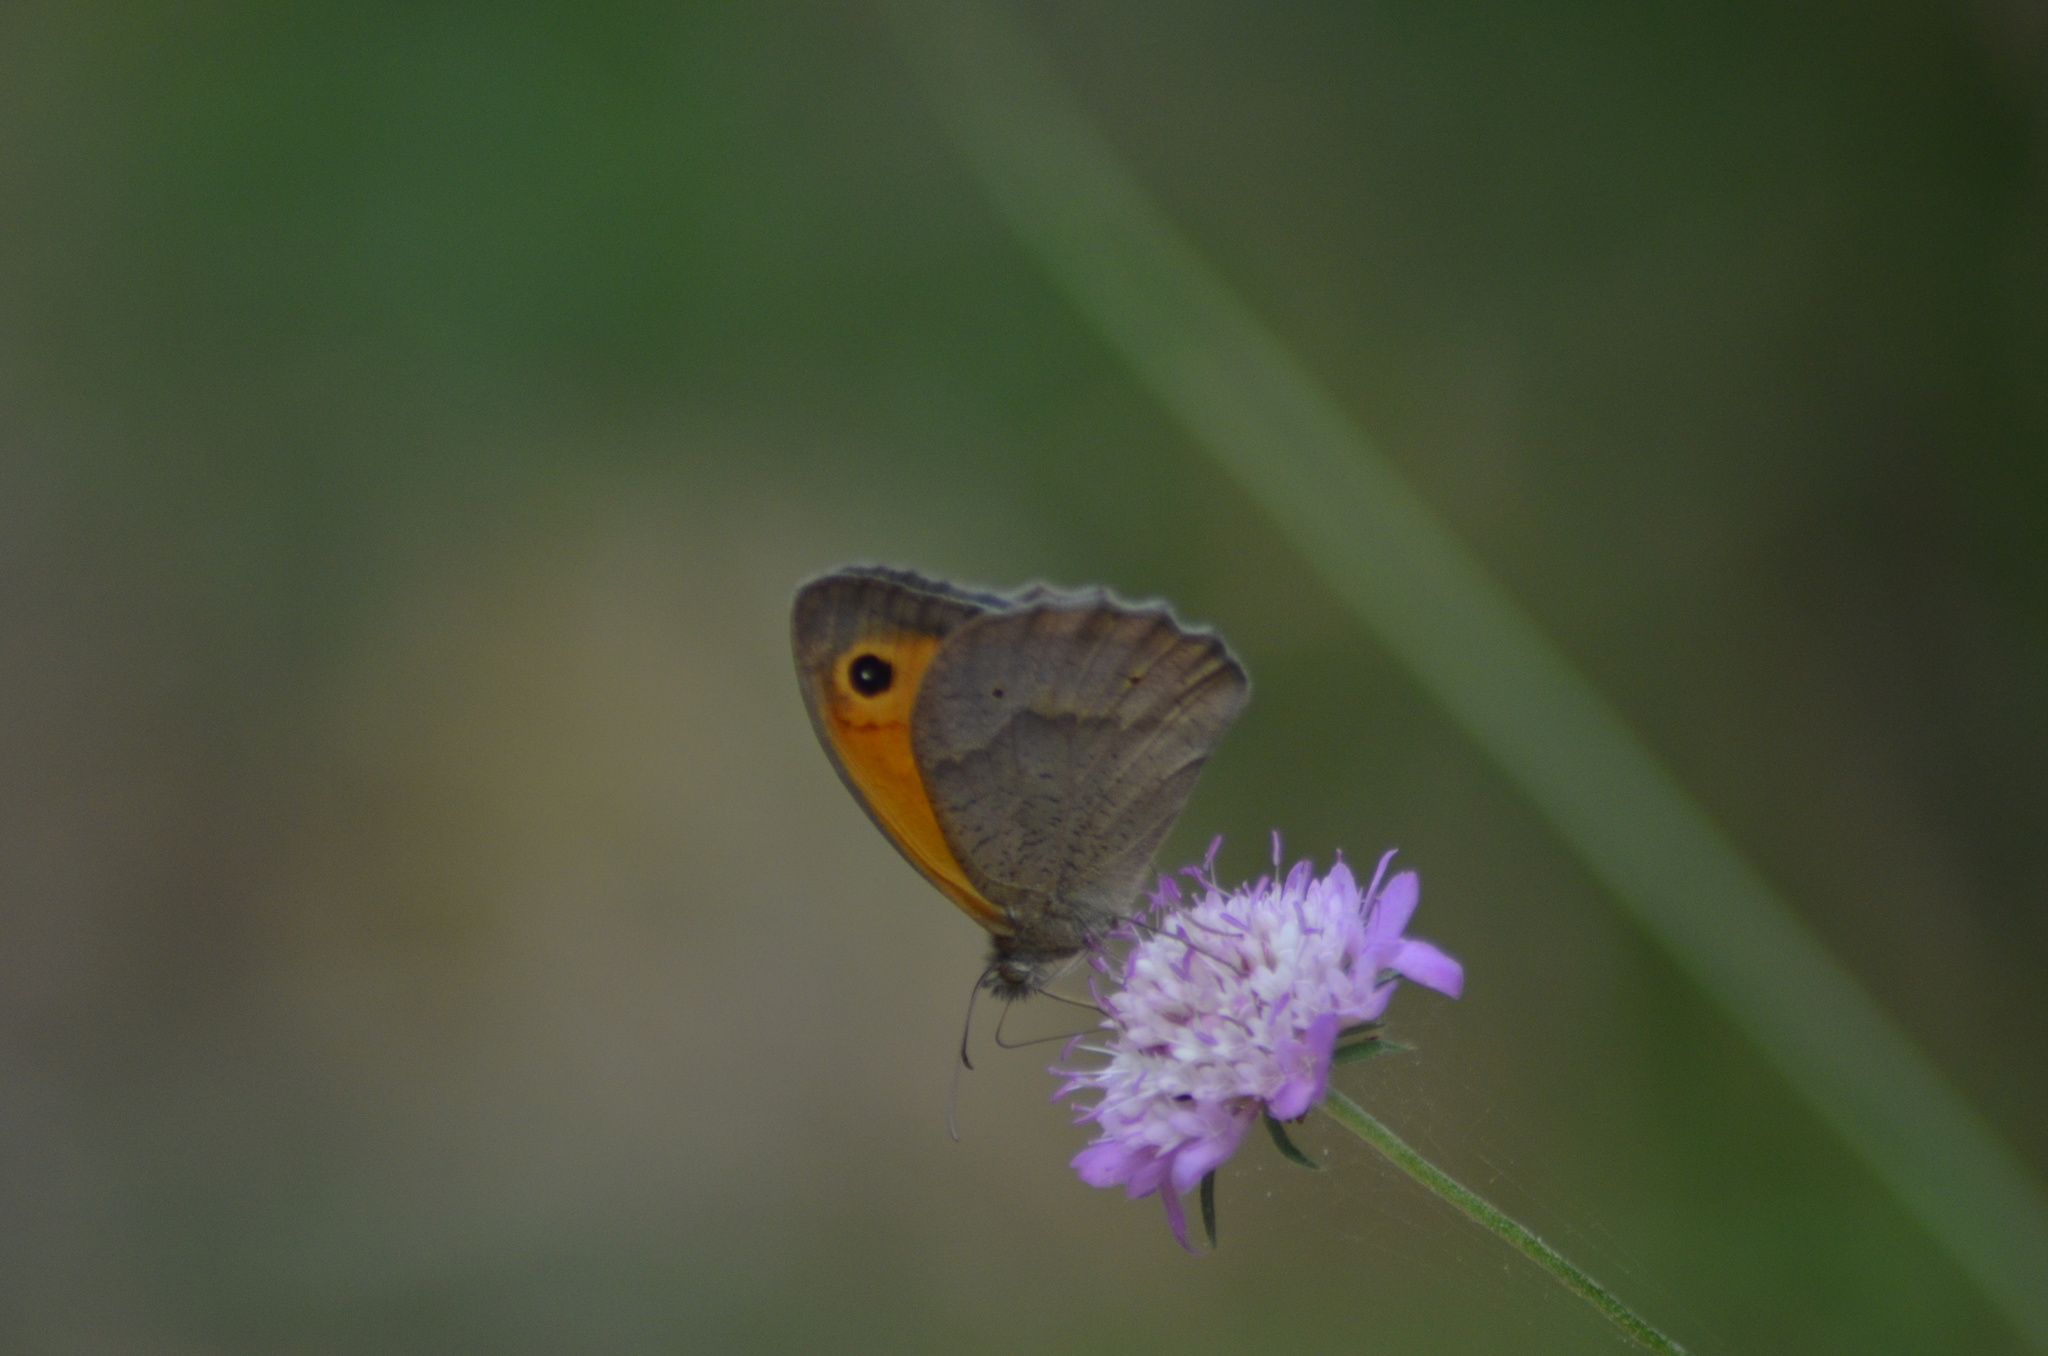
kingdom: Animalia
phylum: Arthropoda
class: Insecta
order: Lepidoptera
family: Nymphalidae
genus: Maniola
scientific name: Maniola jurtina
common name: Meadow brown
